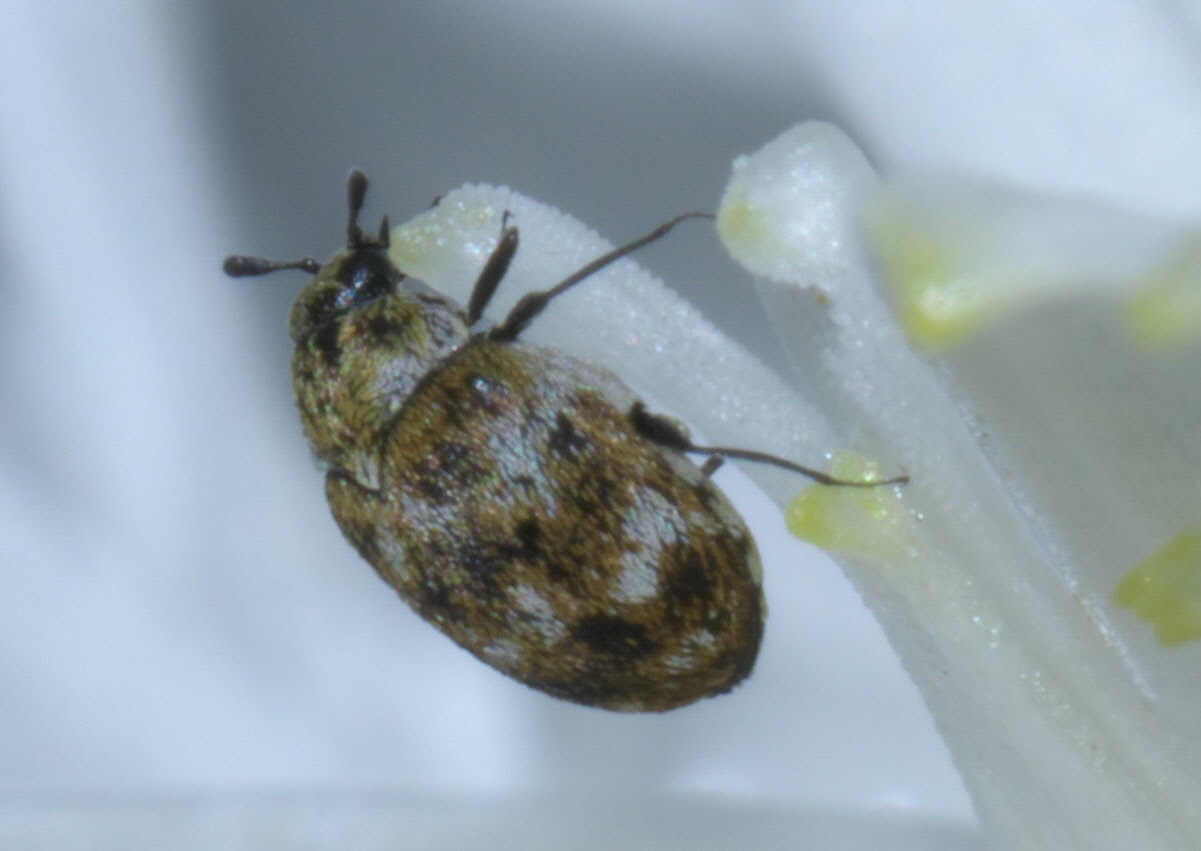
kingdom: Animalia
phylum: Arthropoda
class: Insecta
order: Coleoptera
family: Dermestidae
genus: Anthrenus
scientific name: Anthrenus verbasci
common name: Varied carpet beetle
